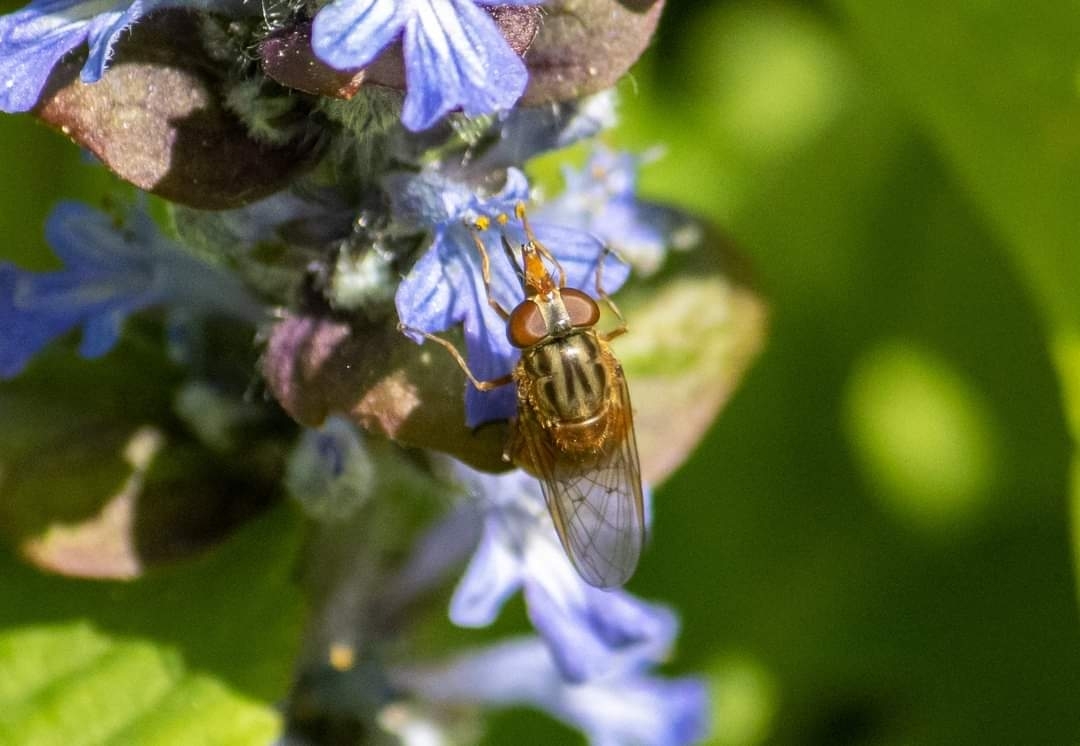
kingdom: Animalia
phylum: Arthropoda
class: Insecta
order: Diptera
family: Syrphidae
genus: Rhingia
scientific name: Rhingia campestris
